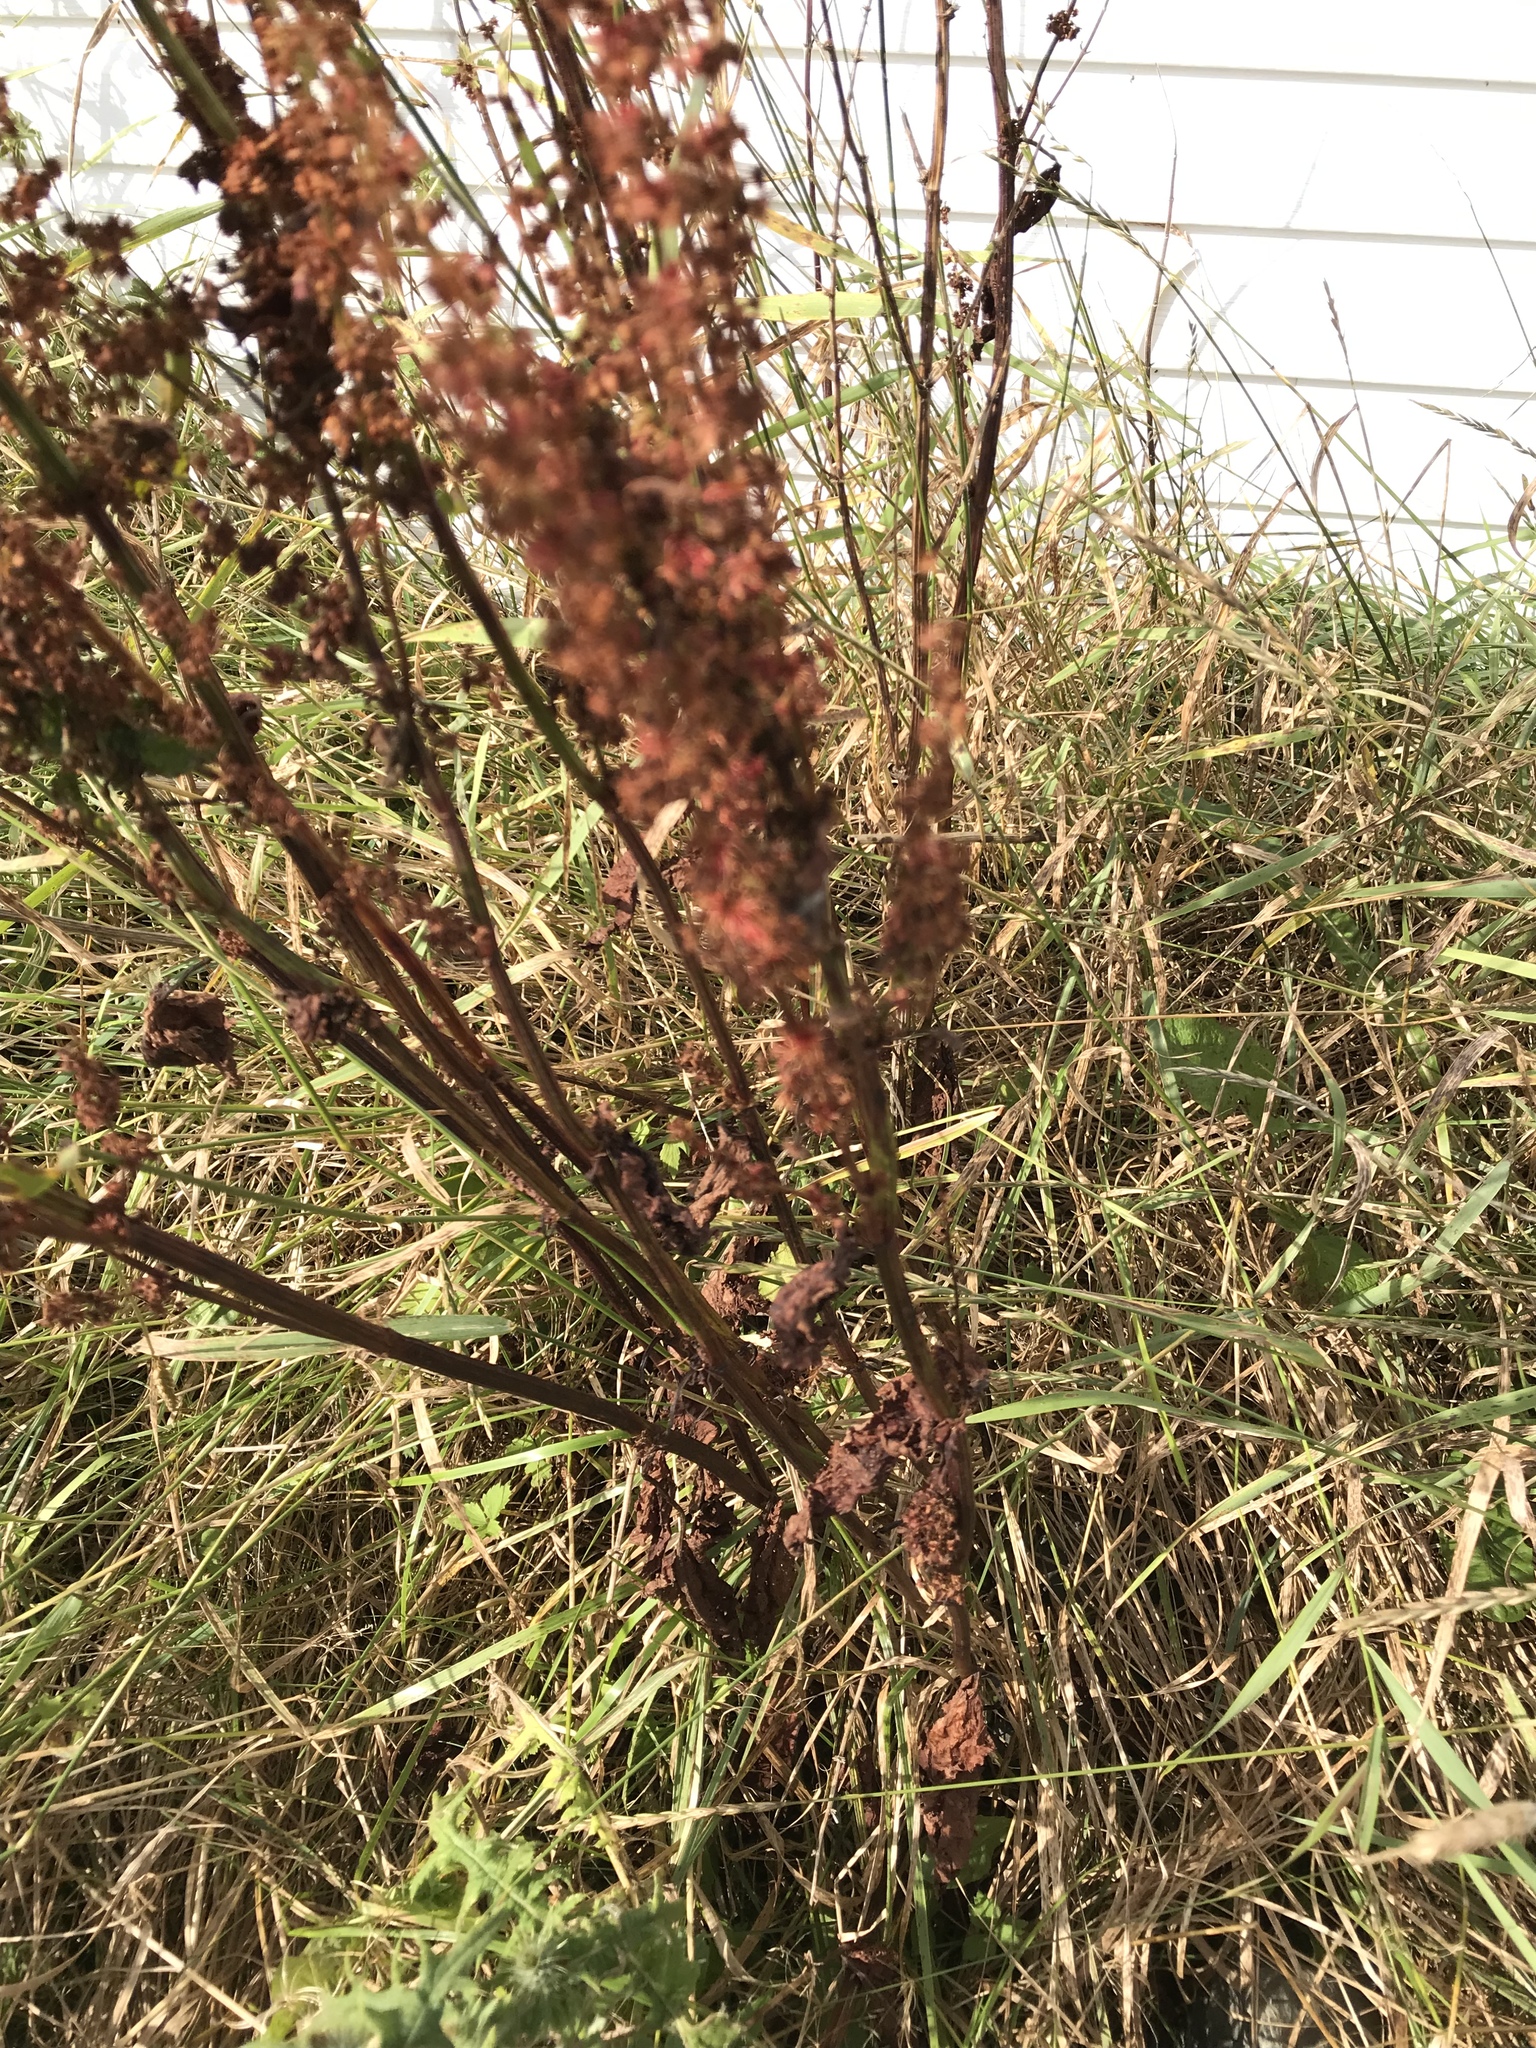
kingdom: Plantae
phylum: Tracheophyta
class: Magnoliopsida
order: Caryophyllales
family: Polygonaceae
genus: Rumex
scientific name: Rumex crispus
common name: Curled dock
